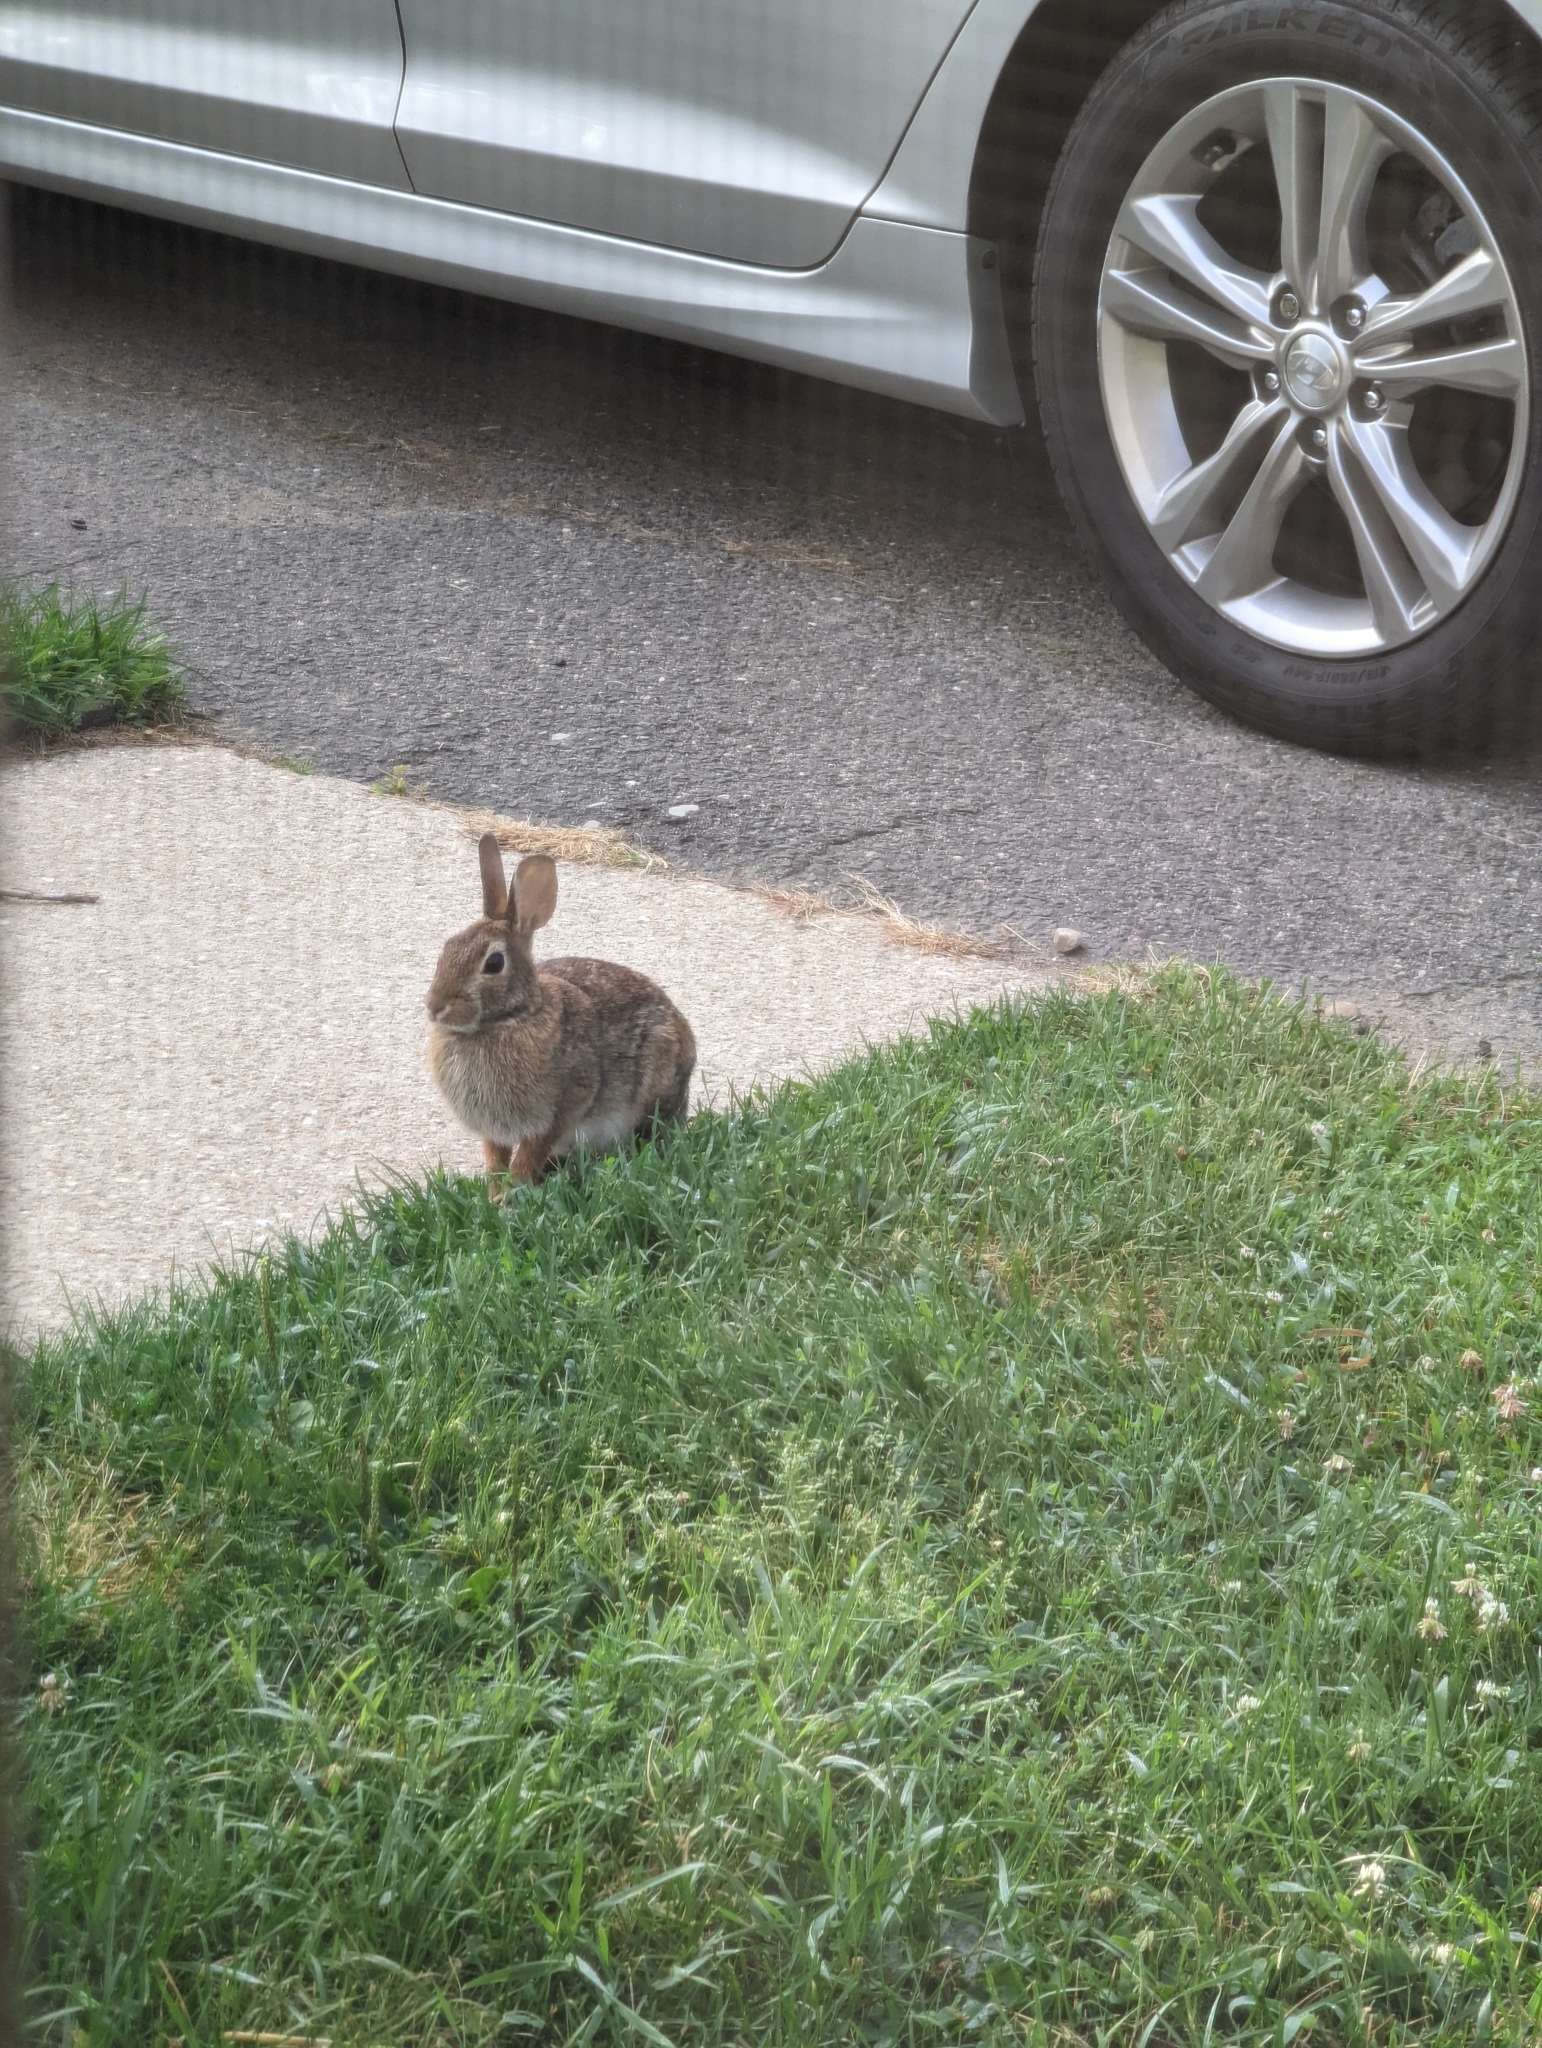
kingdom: Animalia
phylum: Chordata
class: Mammalia
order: Lagomorpha
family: Leporidae
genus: Sylvilagus
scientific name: Sylvilagus floridanus
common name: Eastern cottontail
